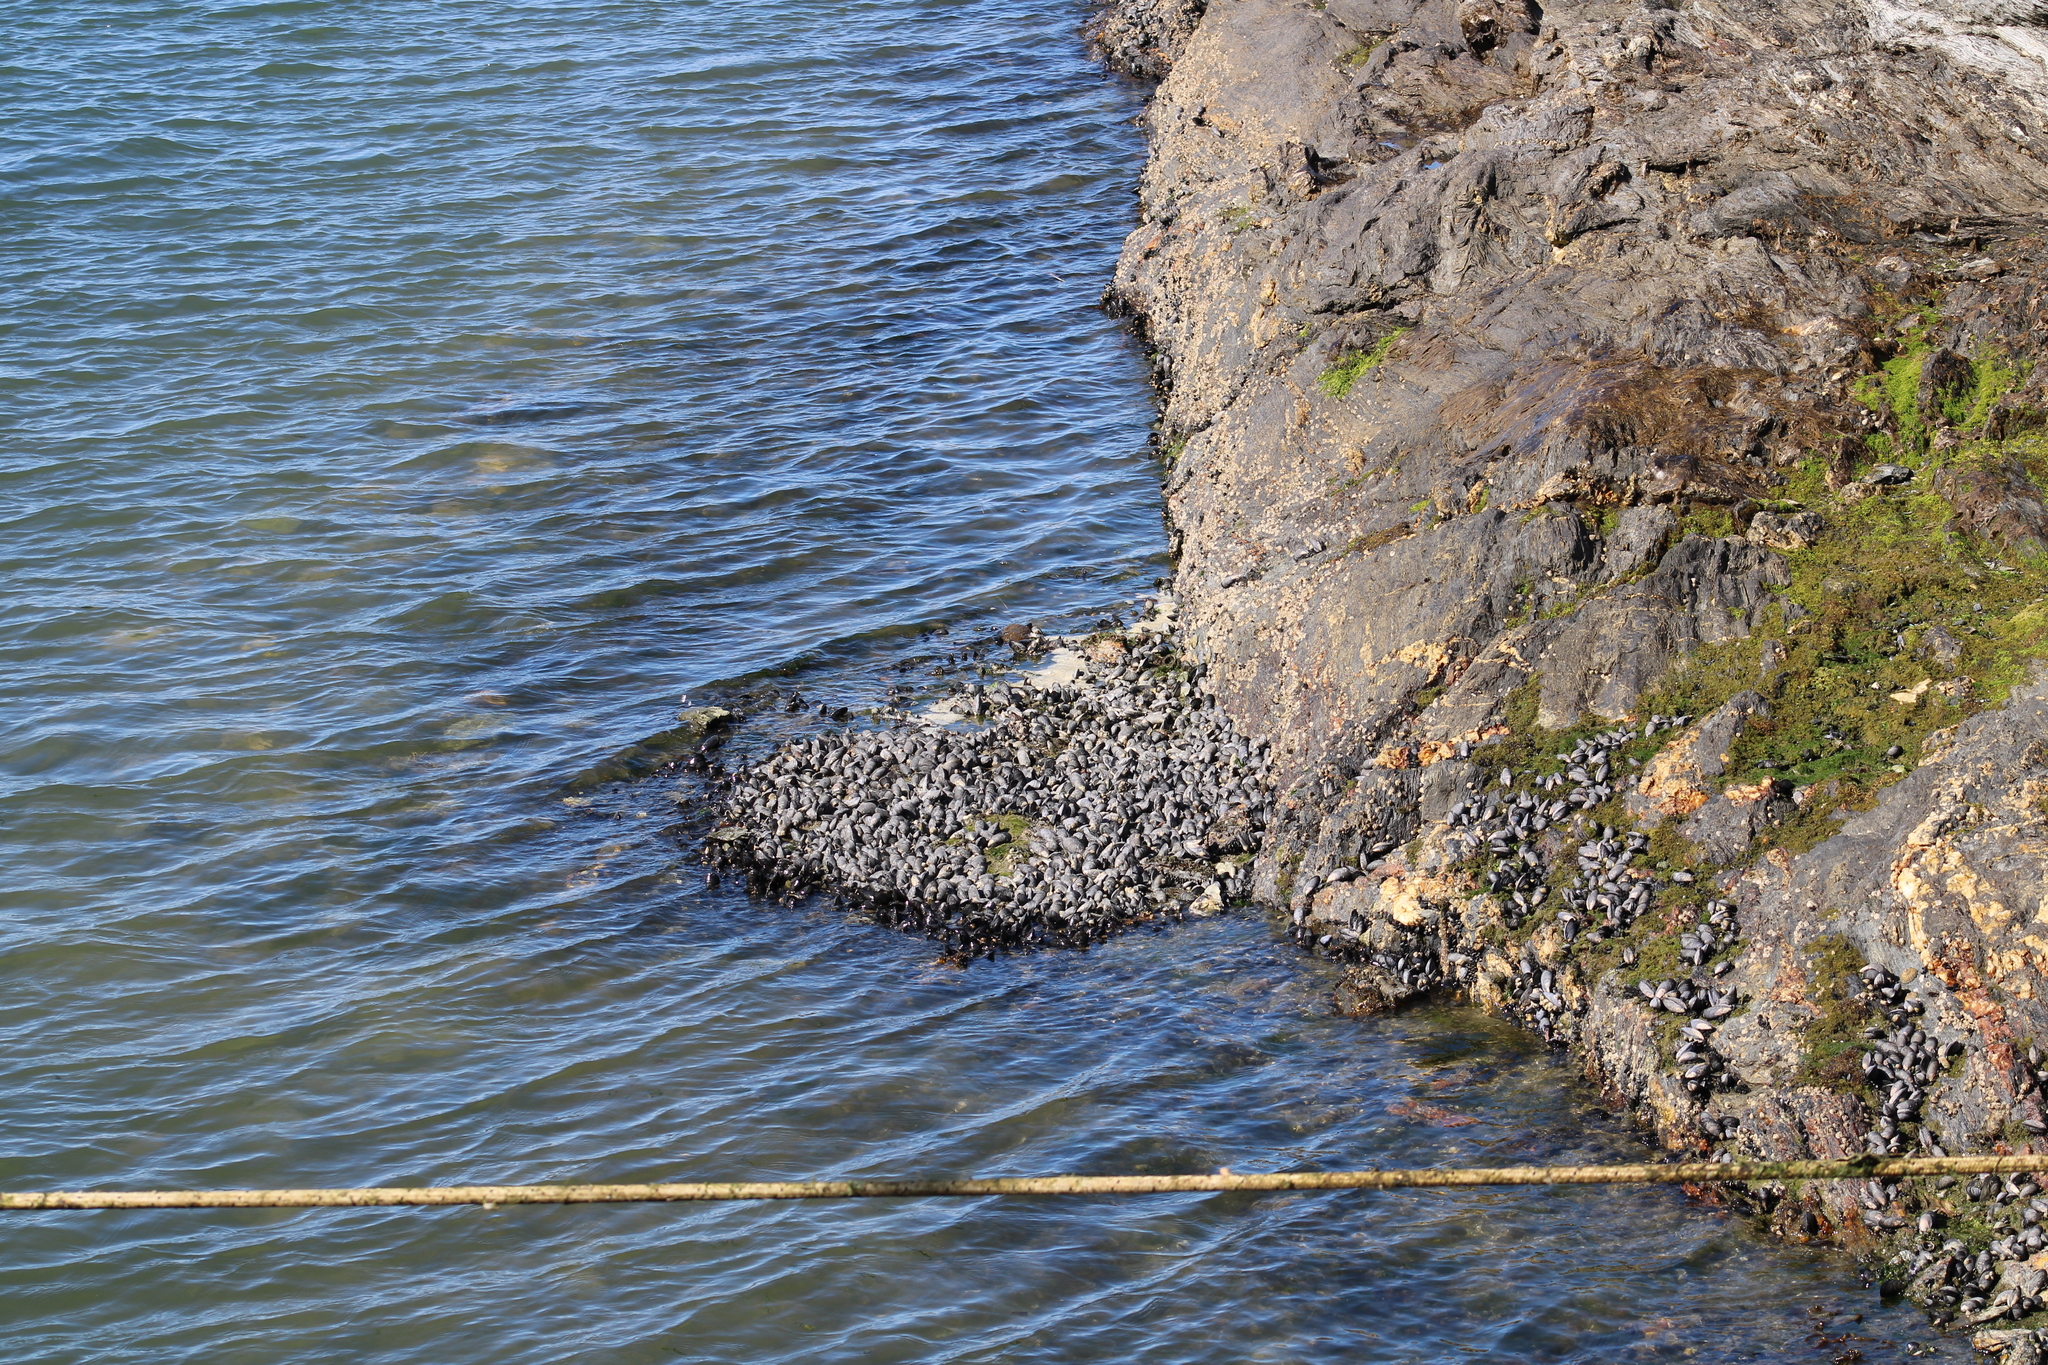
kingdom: Animalia
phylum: Mollusca
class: Bivalvia
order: Mytilida
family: Mytilidae
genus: Mytilus
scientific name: Mytilus chilensis
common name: Chilean mussel
